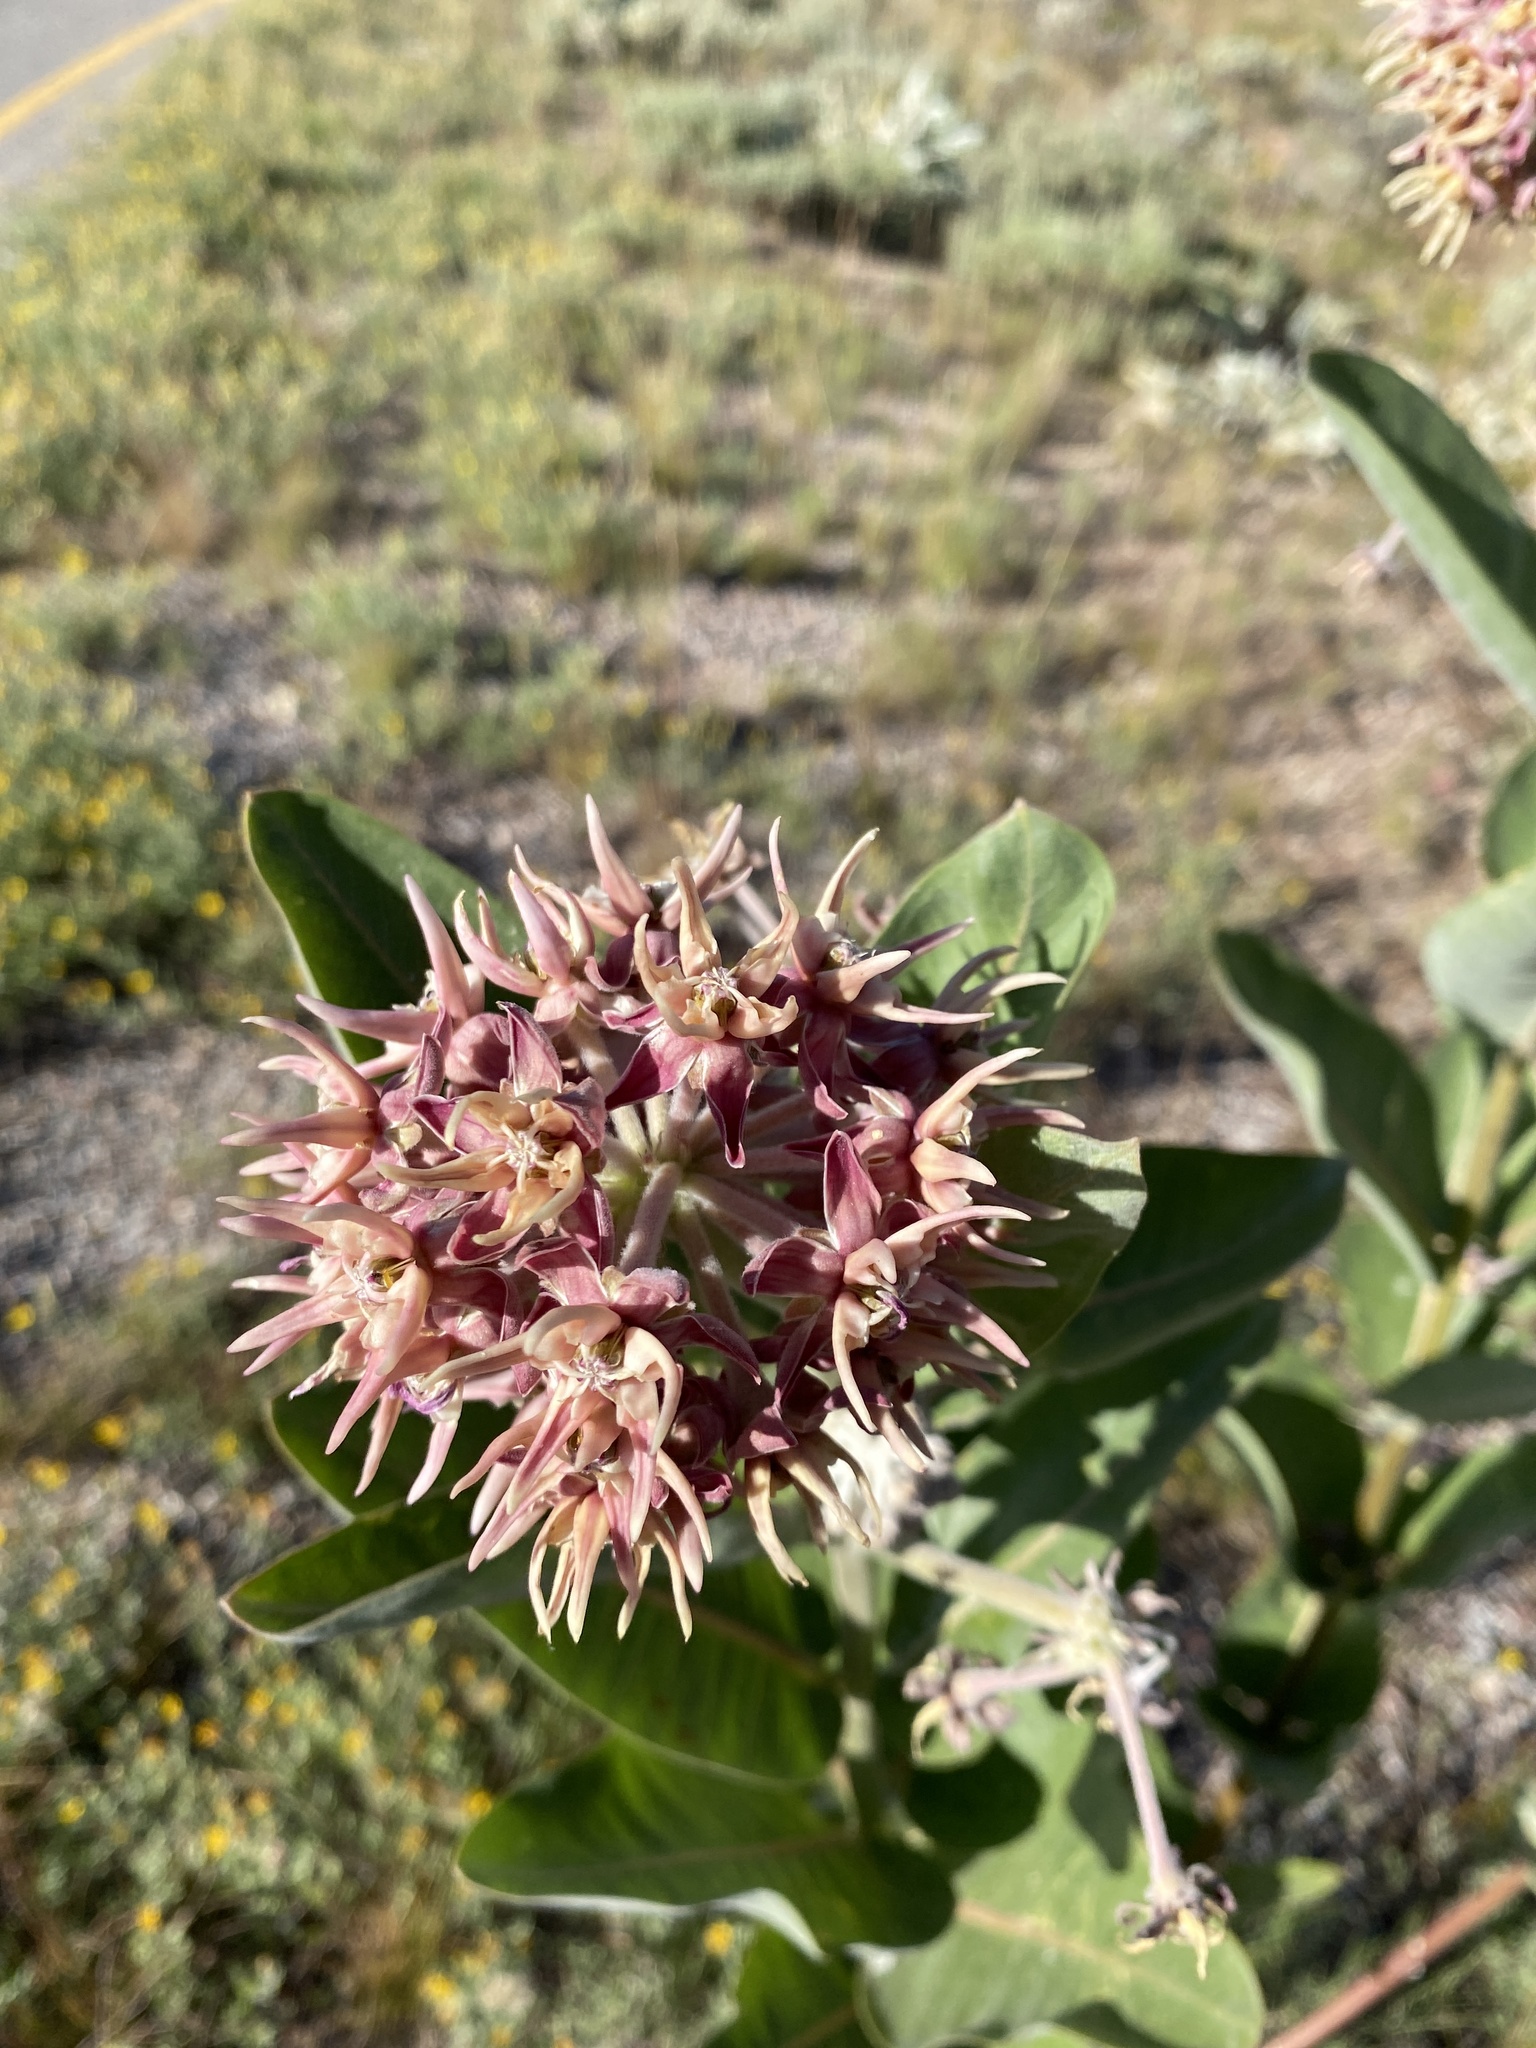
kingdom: Plantae
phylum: Tracheophyta
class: Magnoliopsida
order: Gentianales
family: Apocynaceae
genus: Asclepias
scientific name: Asclepias speciosa
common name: Showy milkweed
